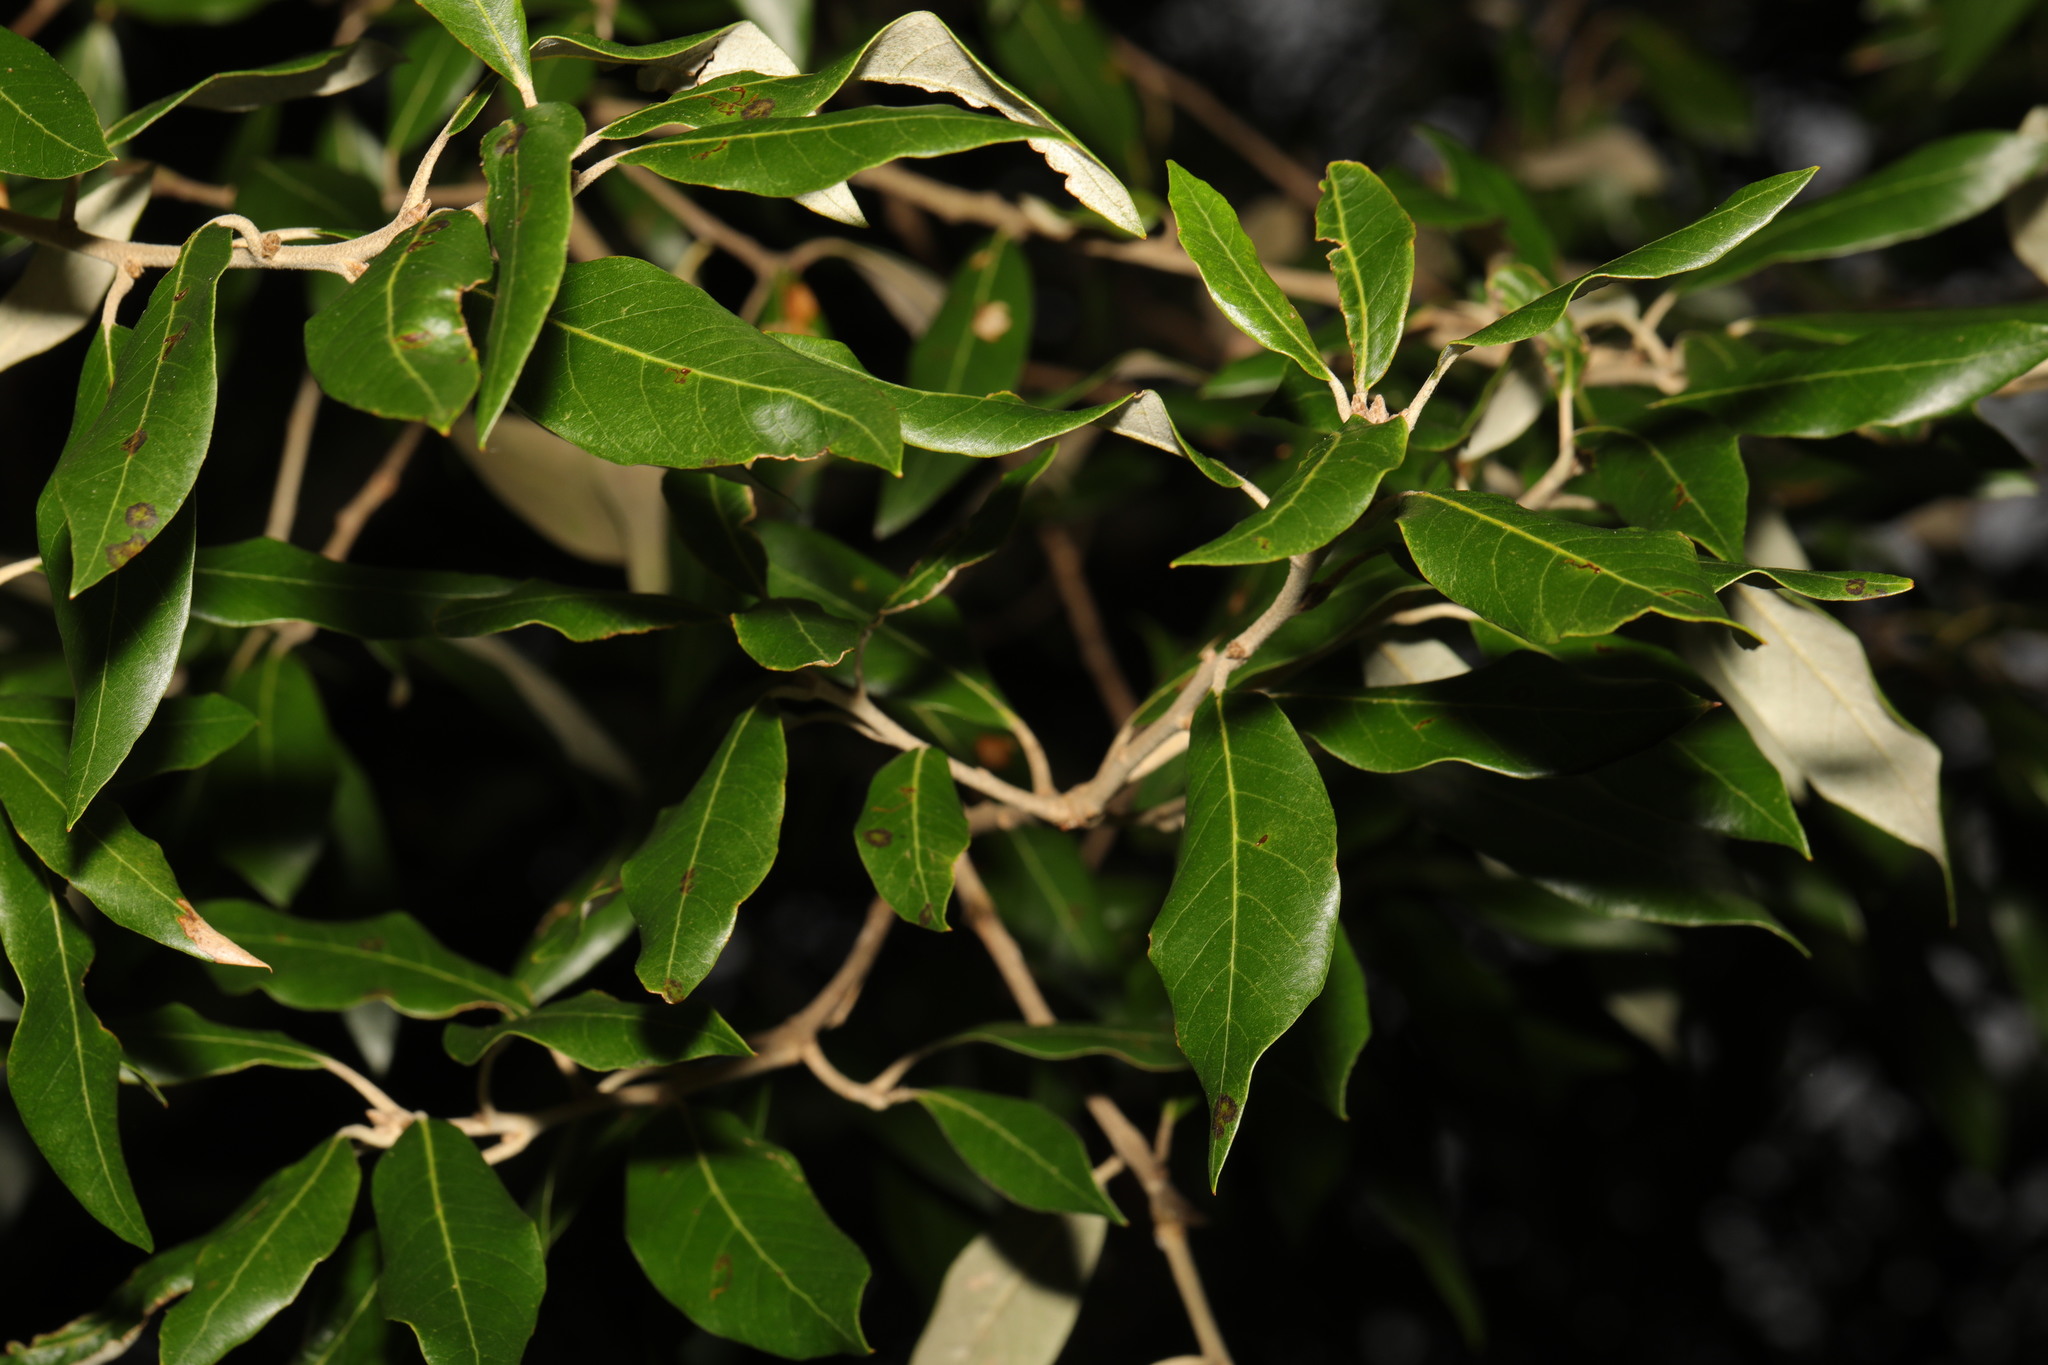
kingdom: Plantae
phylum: Tracheophyta
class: Magnoliopsida
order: Fagales
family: Fagaceae
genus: Quercus
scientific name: Quercus ilex
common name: Evergreen oak
